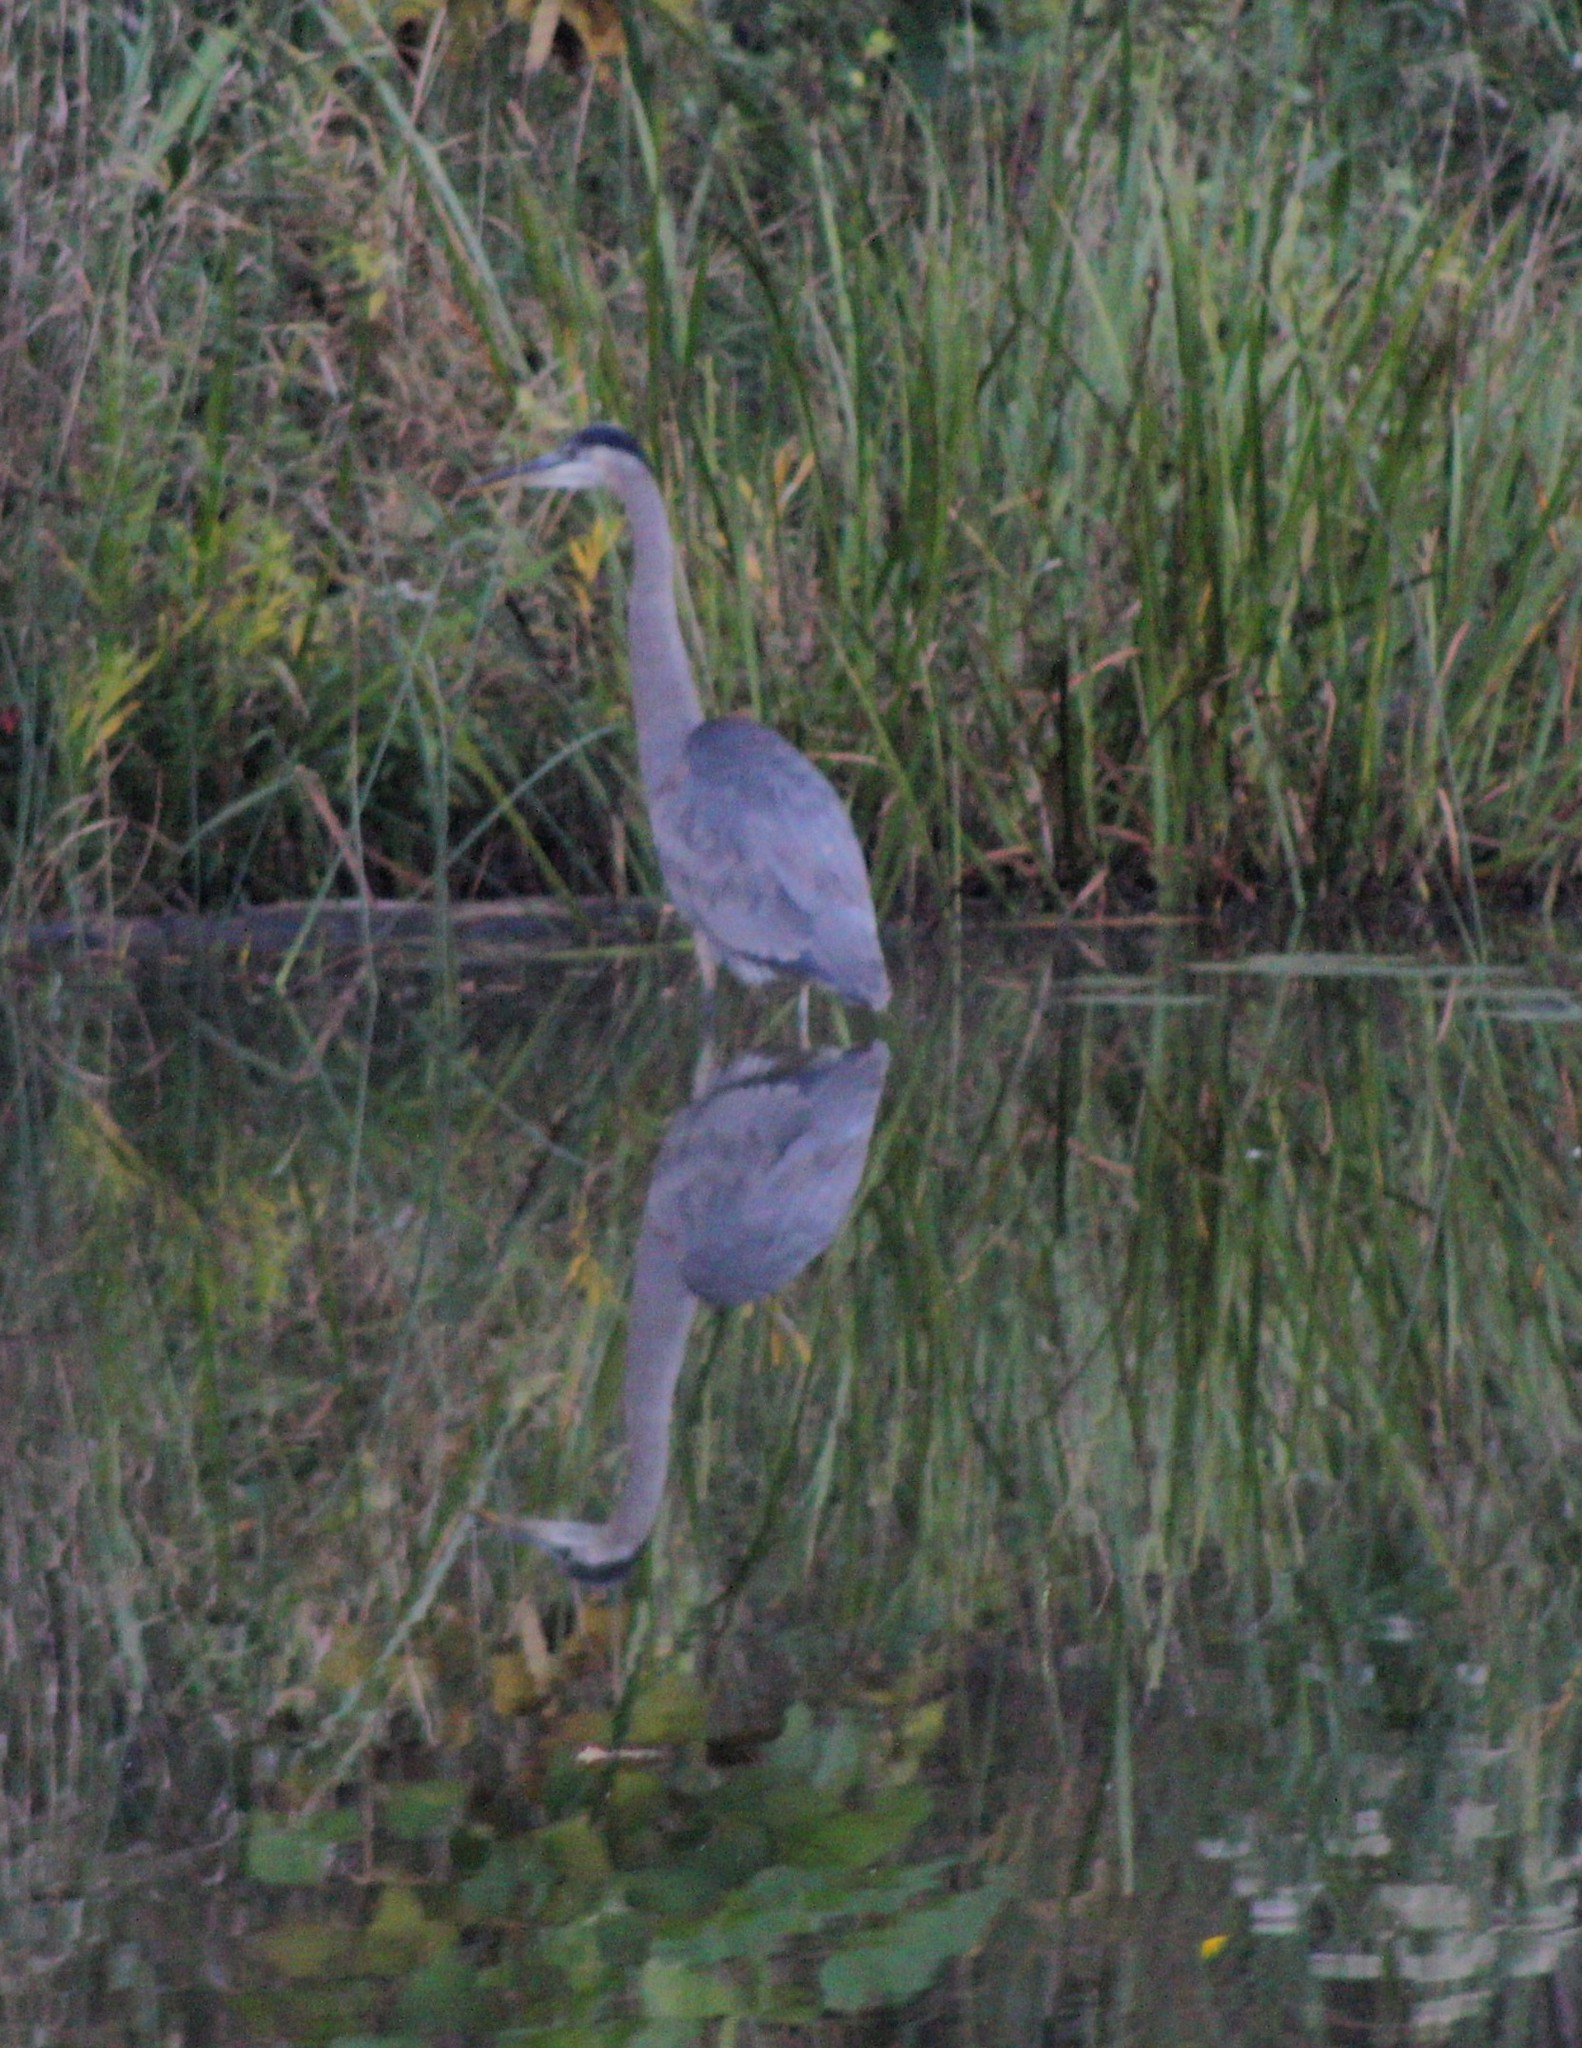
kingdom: Animalia
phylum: Chordata
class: Aves
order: Pelecaniformes
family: Ardeidae
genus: Ardea
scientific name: Ardea herodias
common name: Great blue heron
